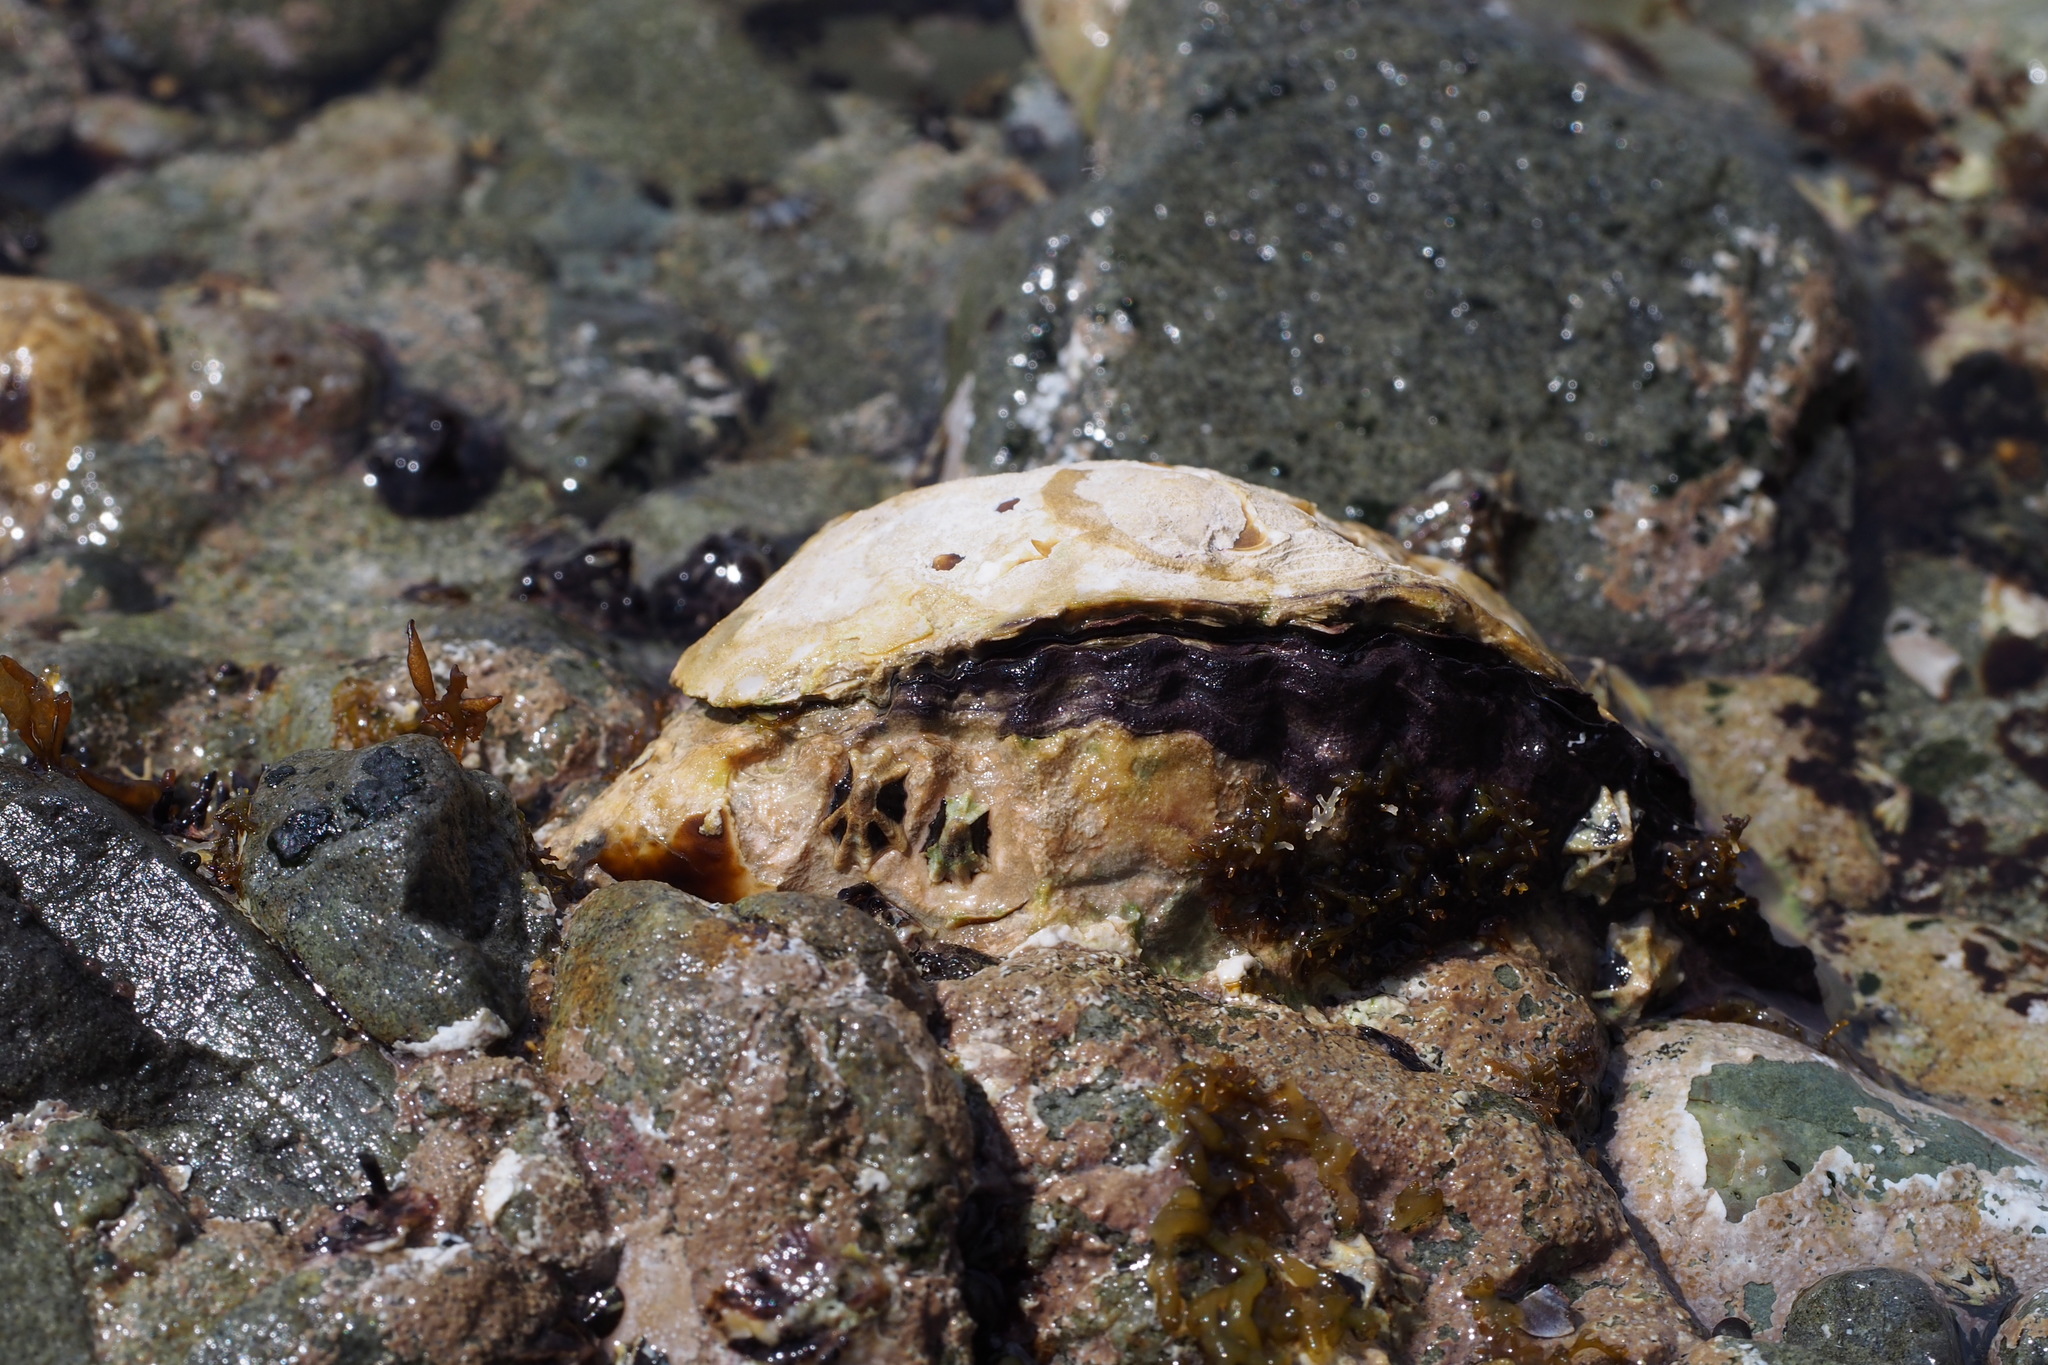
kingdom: Animalia
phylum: Mollusca
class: Gastropoda
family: Lottiidae
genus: Patelloida
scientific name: Patelloida saccharina
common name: Pacific sugar limpet
